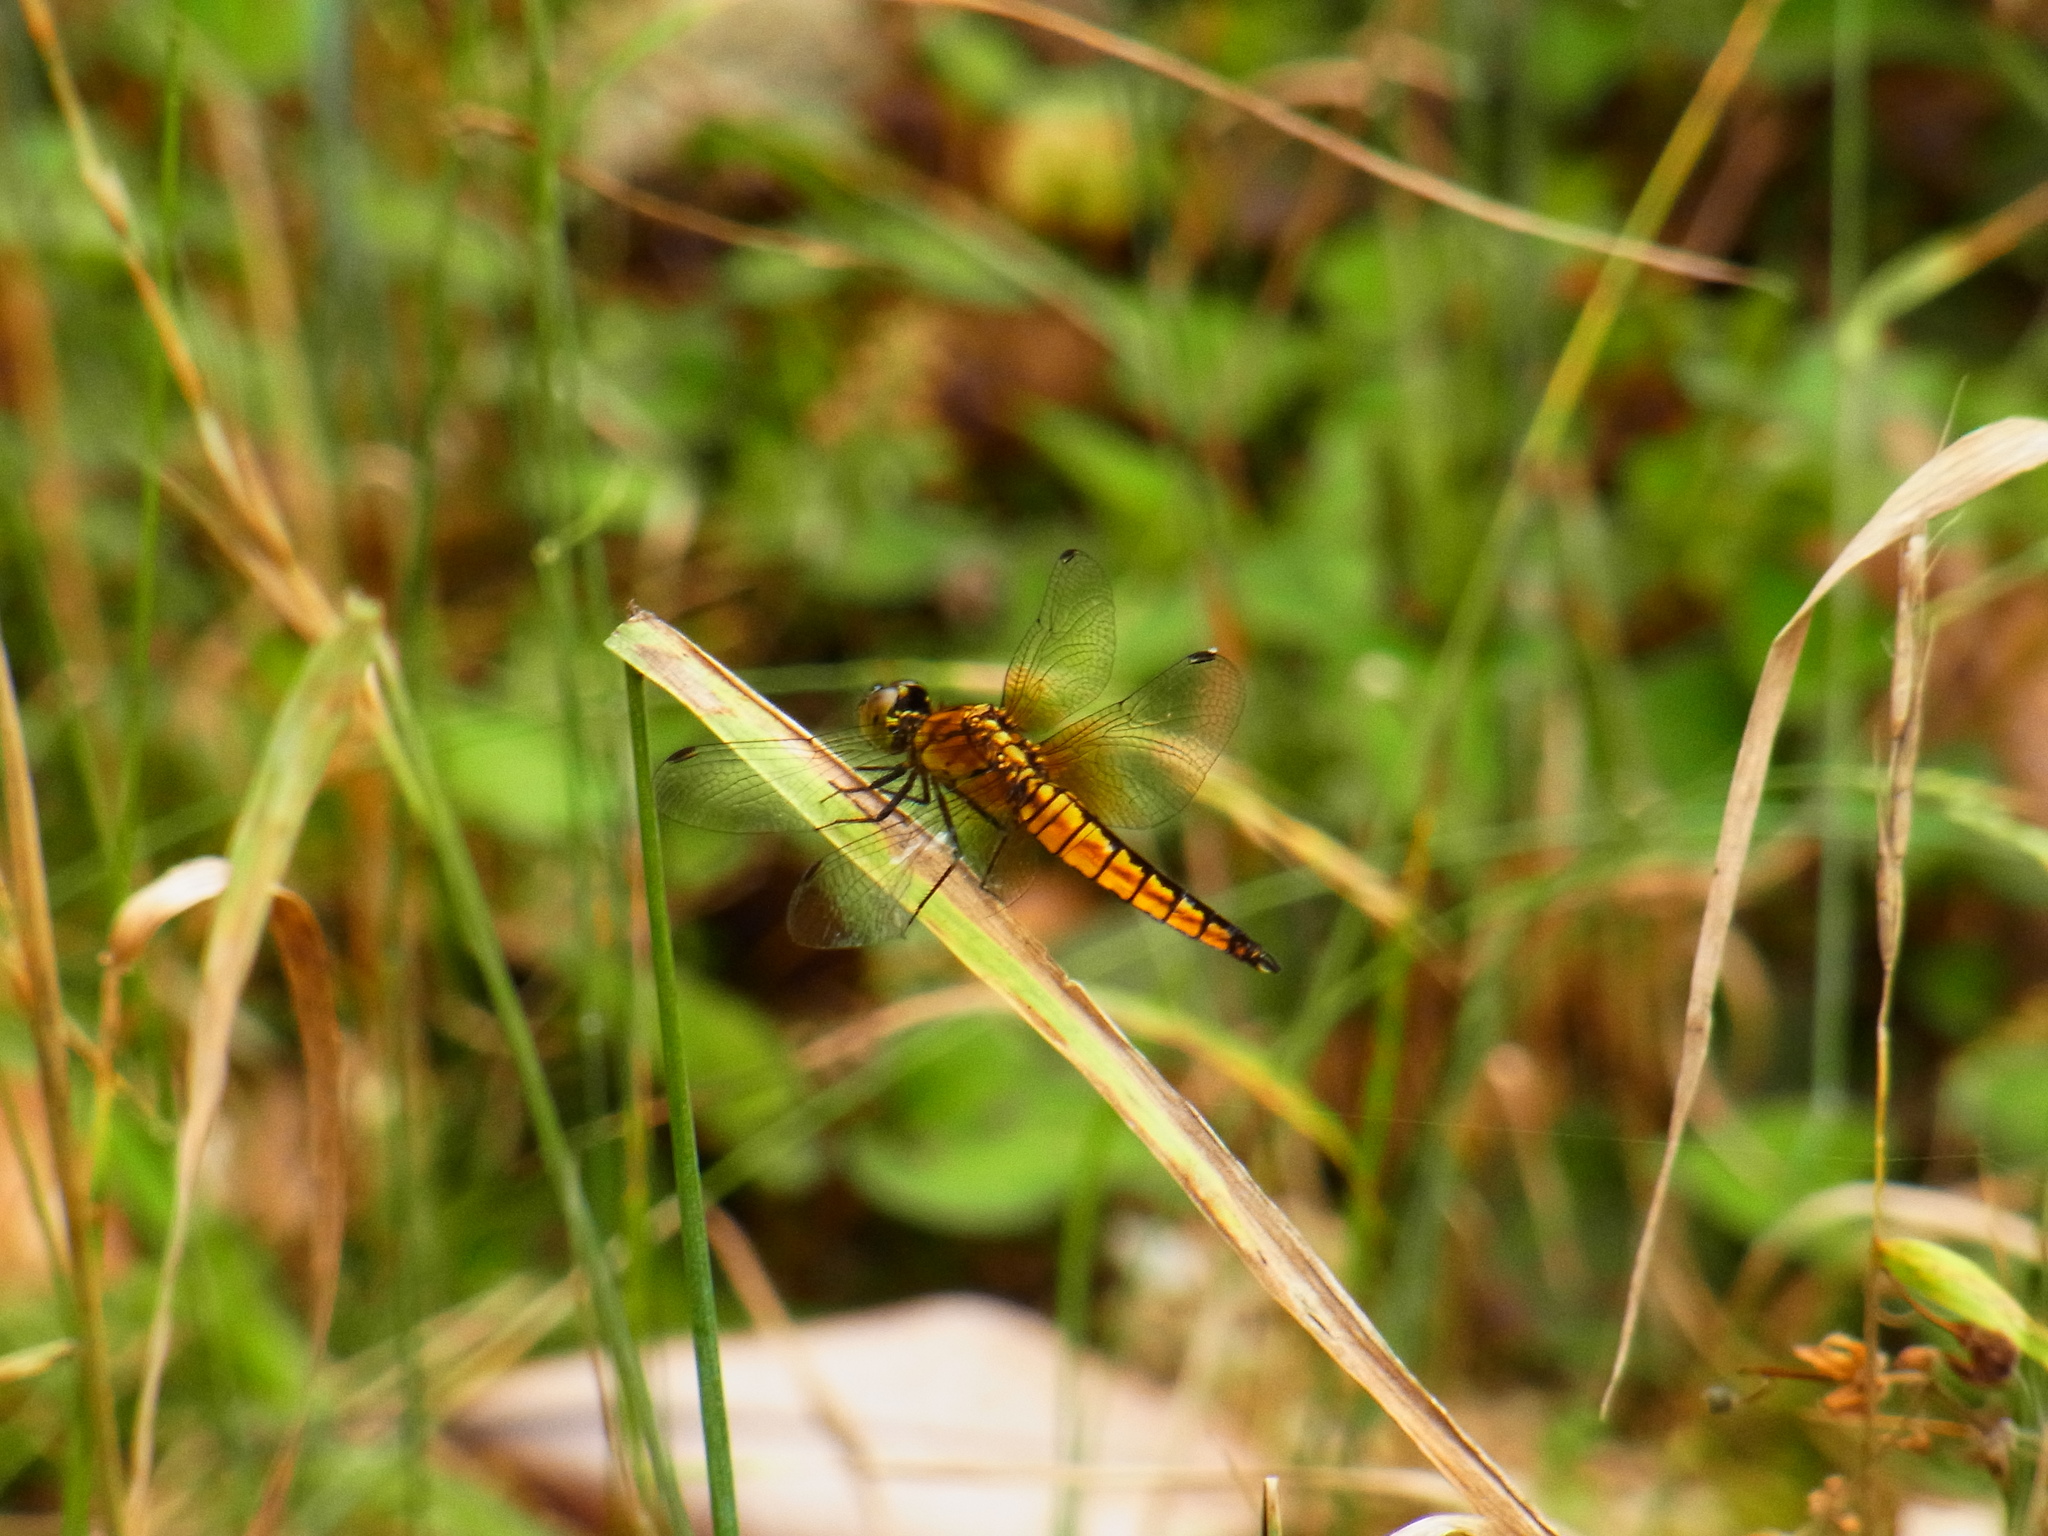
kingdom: Animalia
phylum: Arthropoda
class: Insecta
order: Odonata
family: Libellulidae
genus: Lyriothemis
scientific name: Lyriothemis pachygastra
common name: Wide-bellied skimmer
